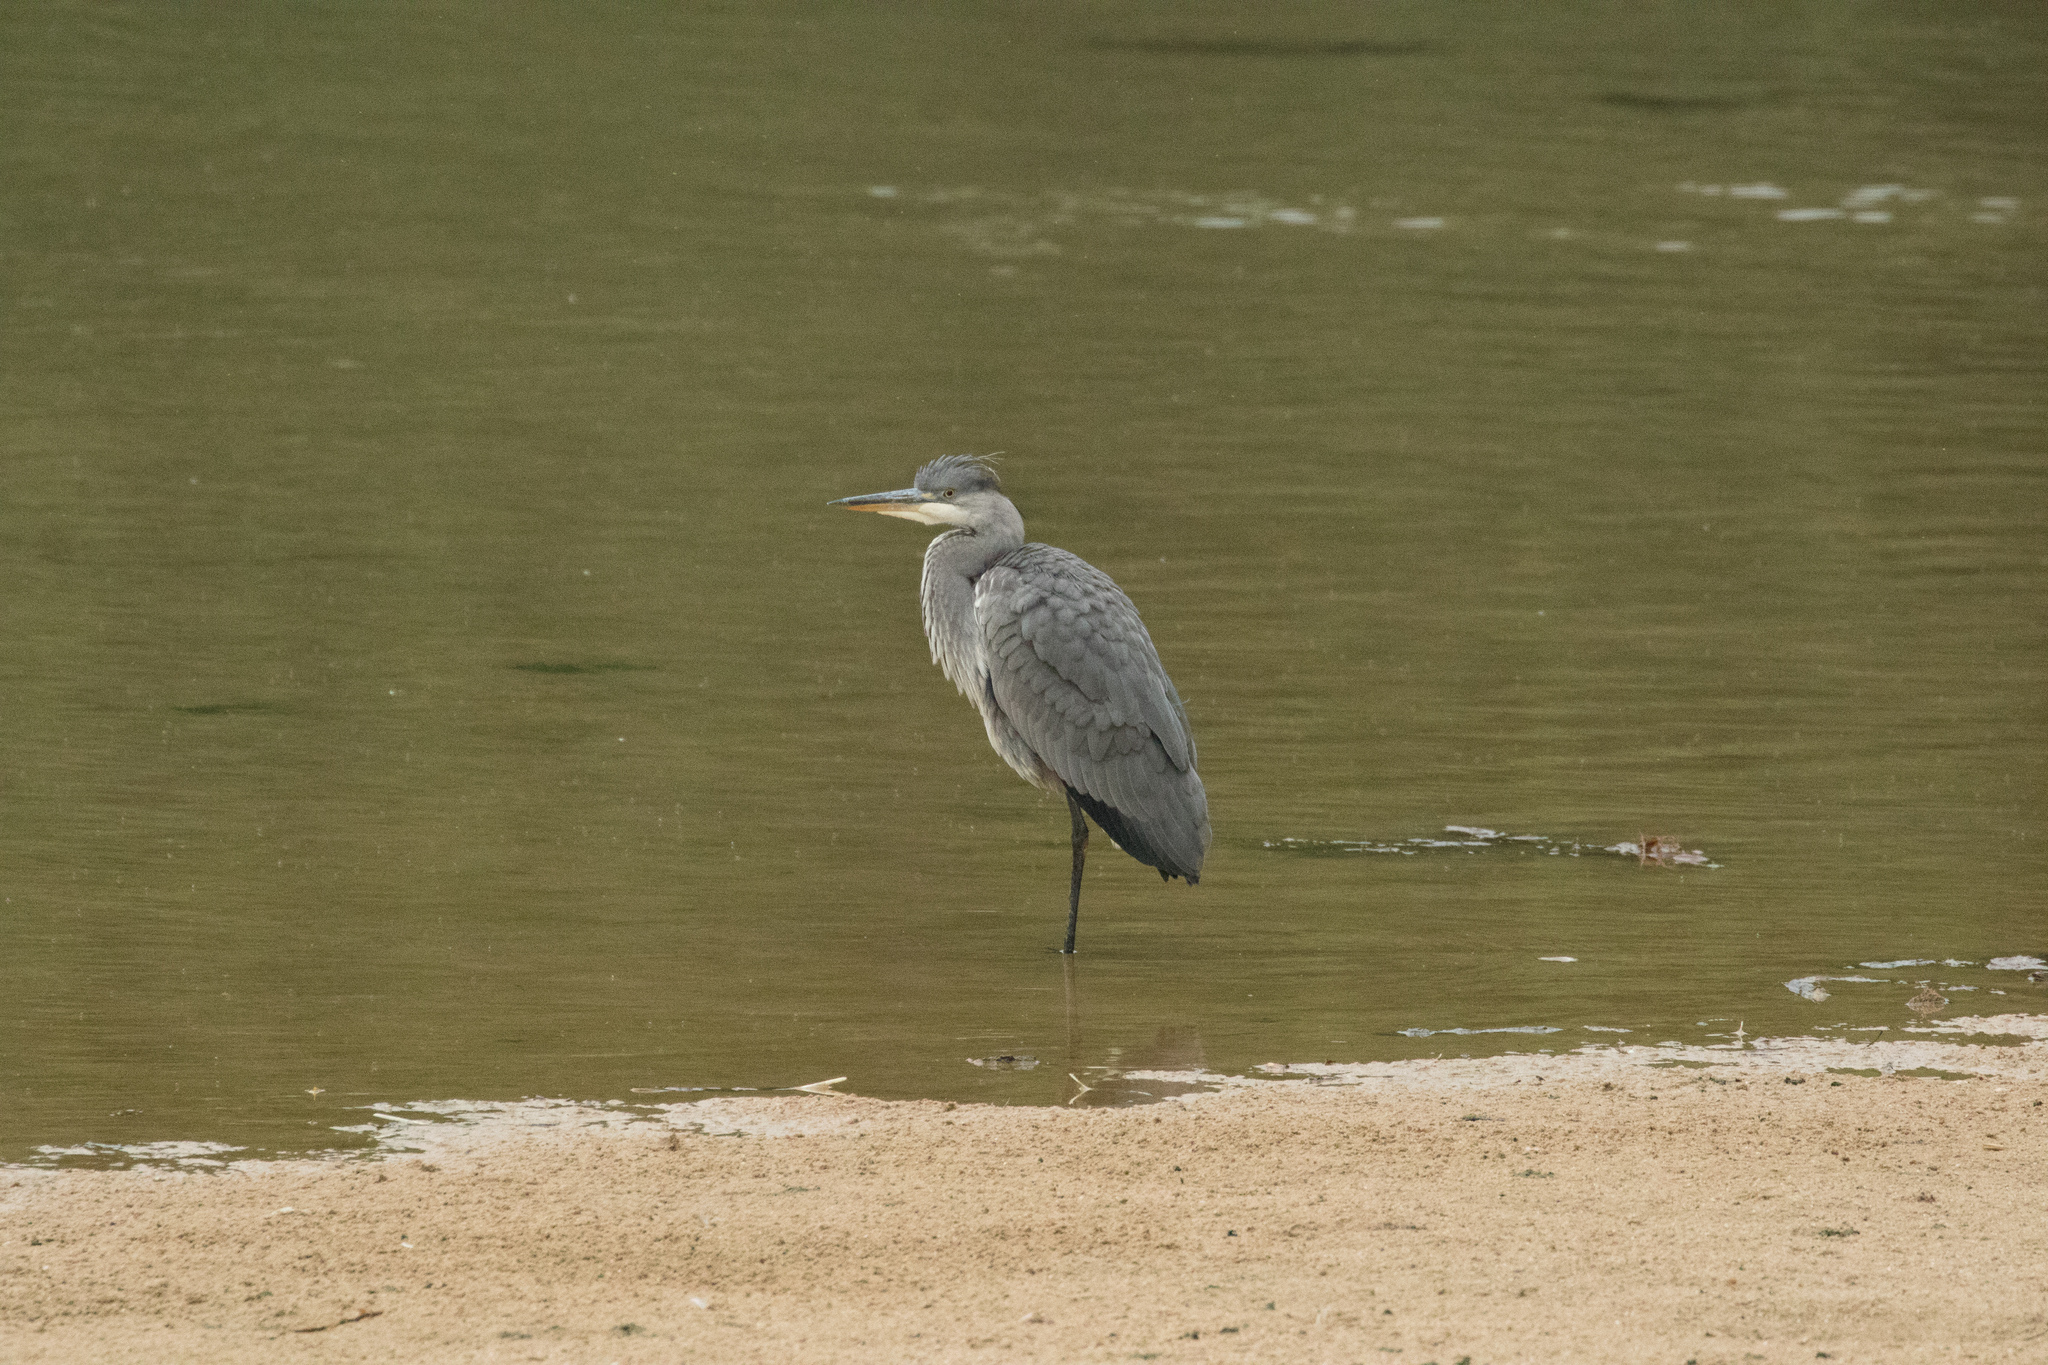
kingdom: Animalia
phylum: Chordata
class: Aves
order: Pelecaniformes
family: Ardeidae
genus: Ardea
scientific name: Ardea cinerea
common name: Grey heron
